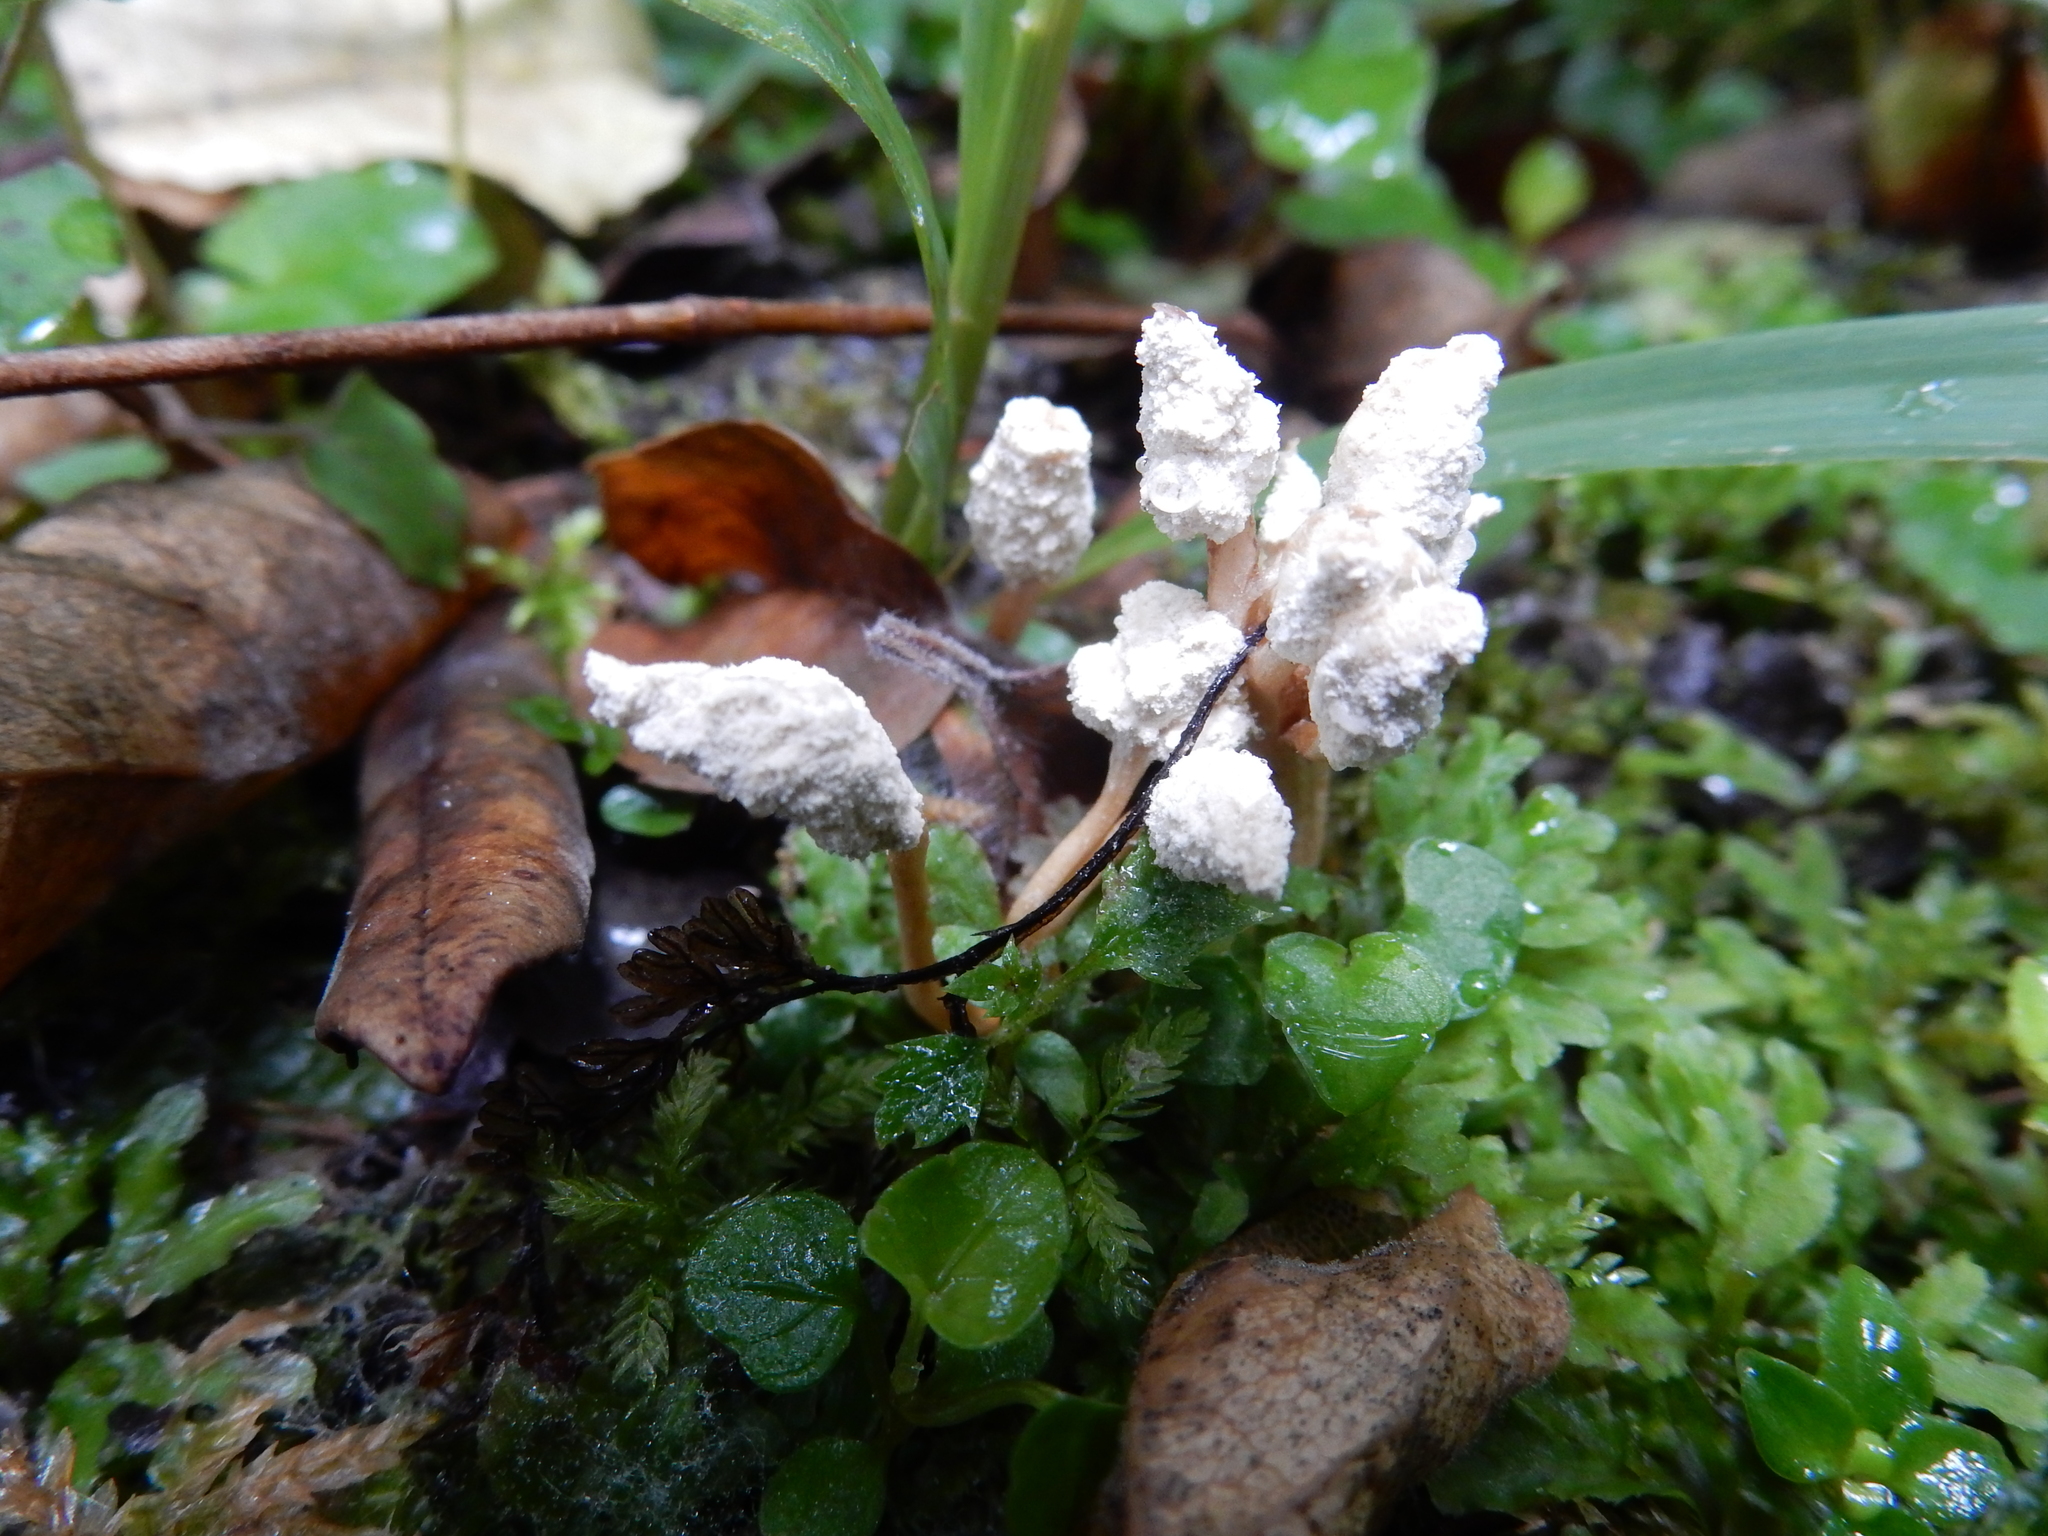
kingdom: Fungi
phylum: Ascomycota
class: Sordariomycetes
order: Hypocreales
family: Cordycipitaceae
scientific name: Cordycipitaceae
